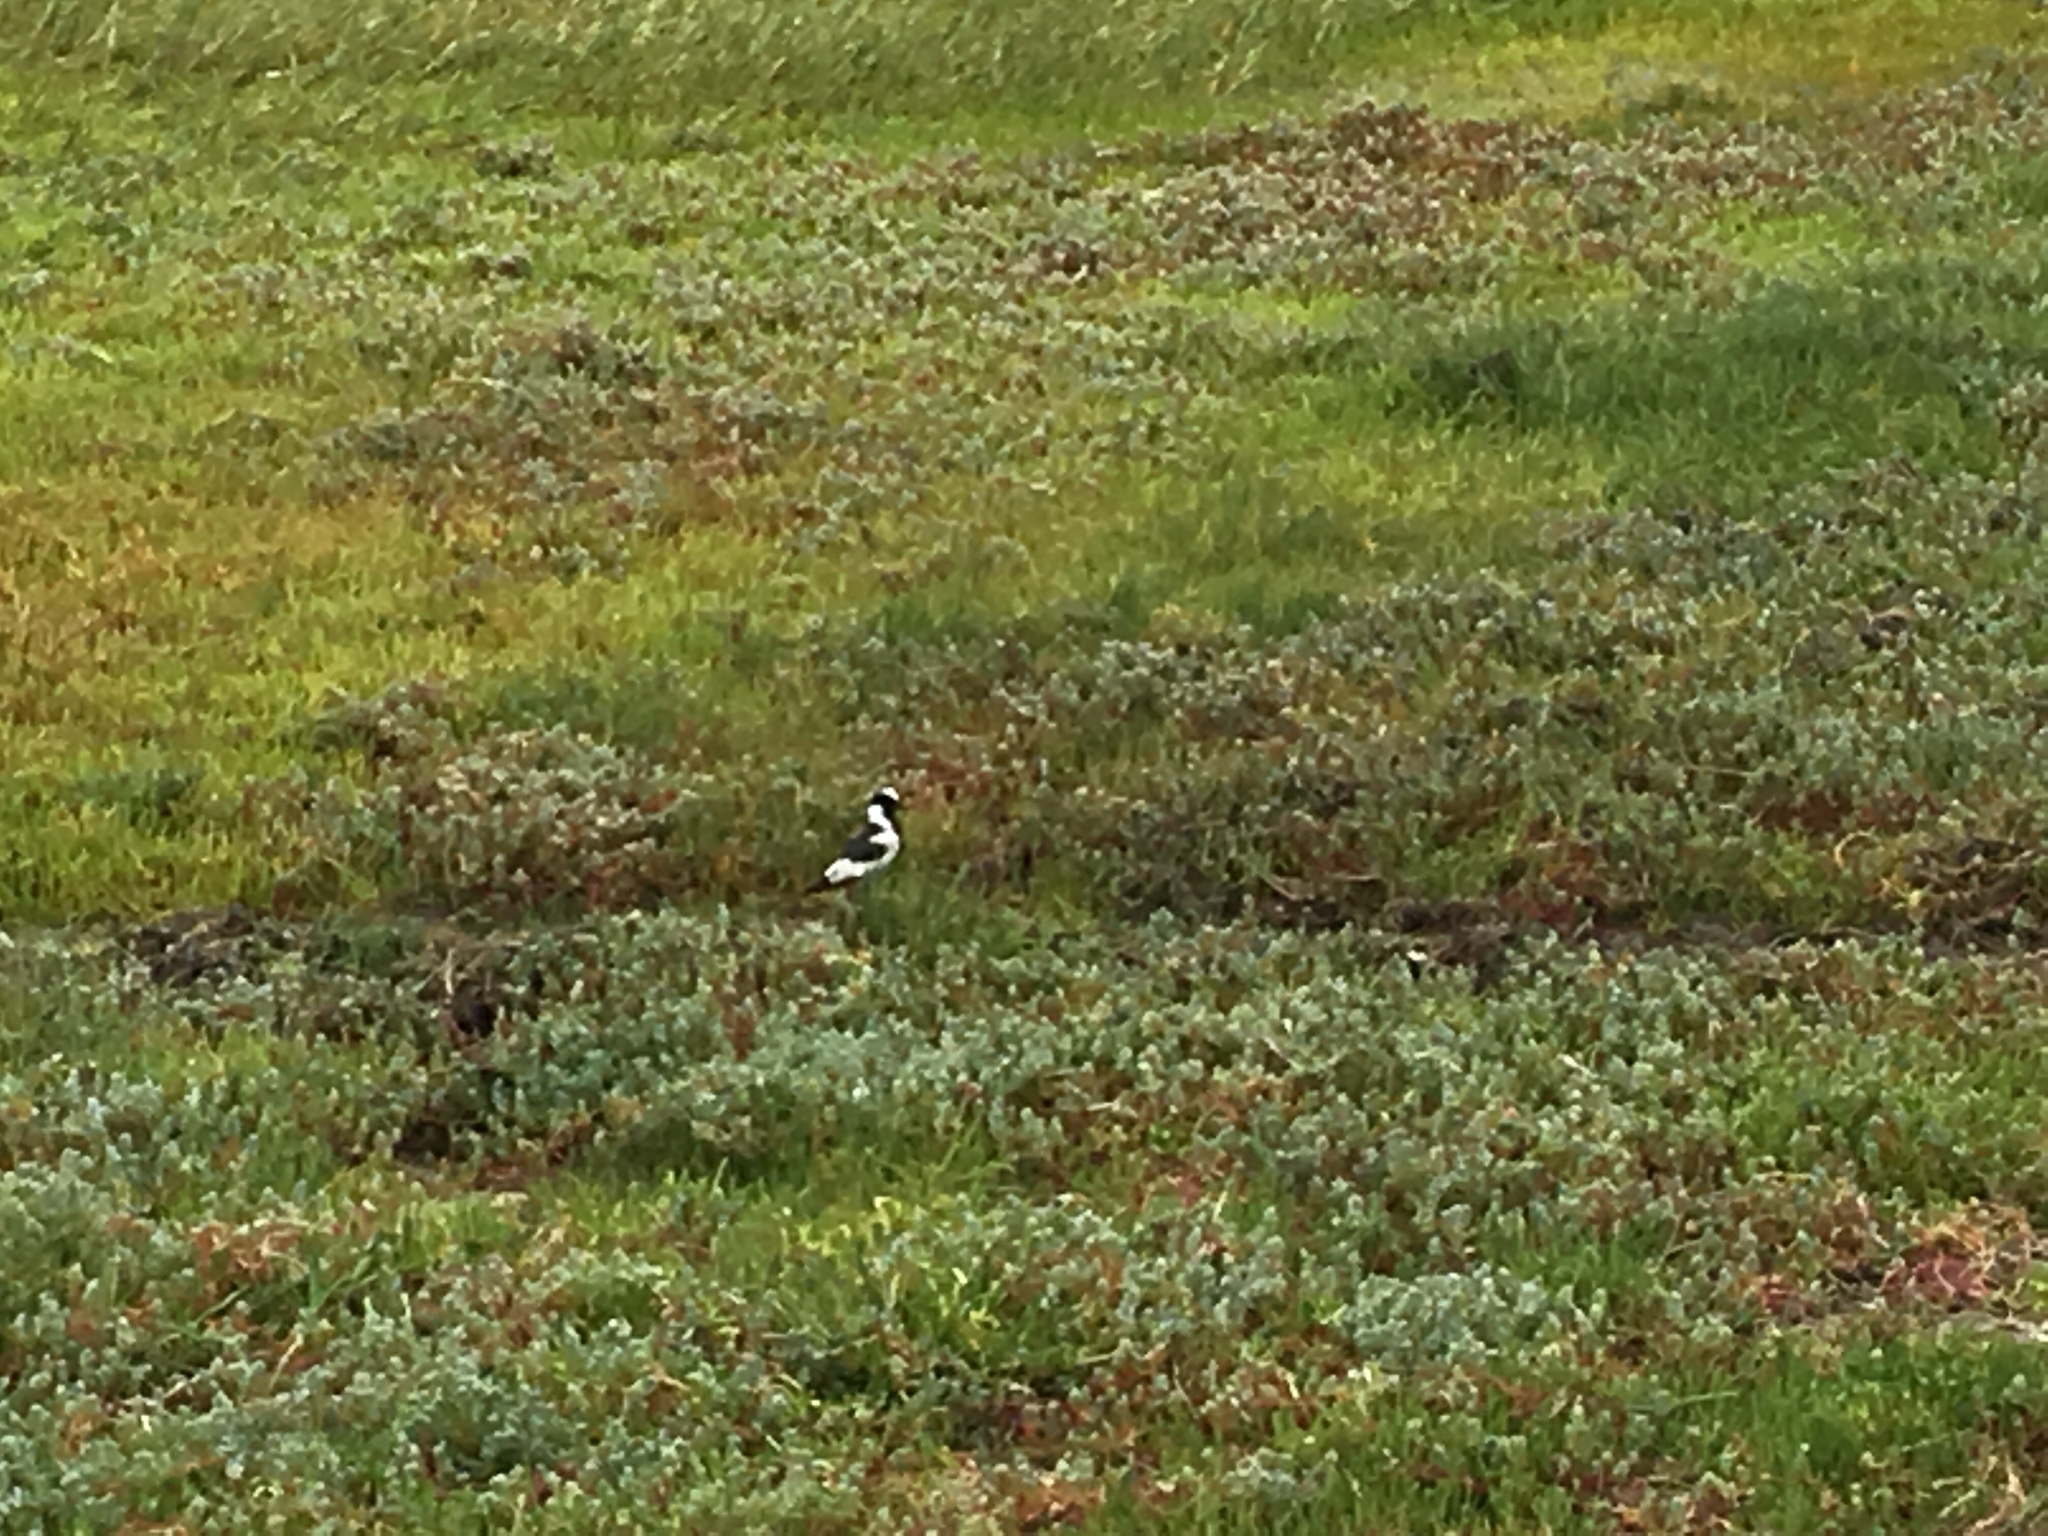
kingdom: Animalia
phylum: Chordata
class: Aves
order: Charadriiformes
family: Charadriidae
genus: Vanellus
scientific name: Vanellus armatus
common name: Blacksmith lapwing
